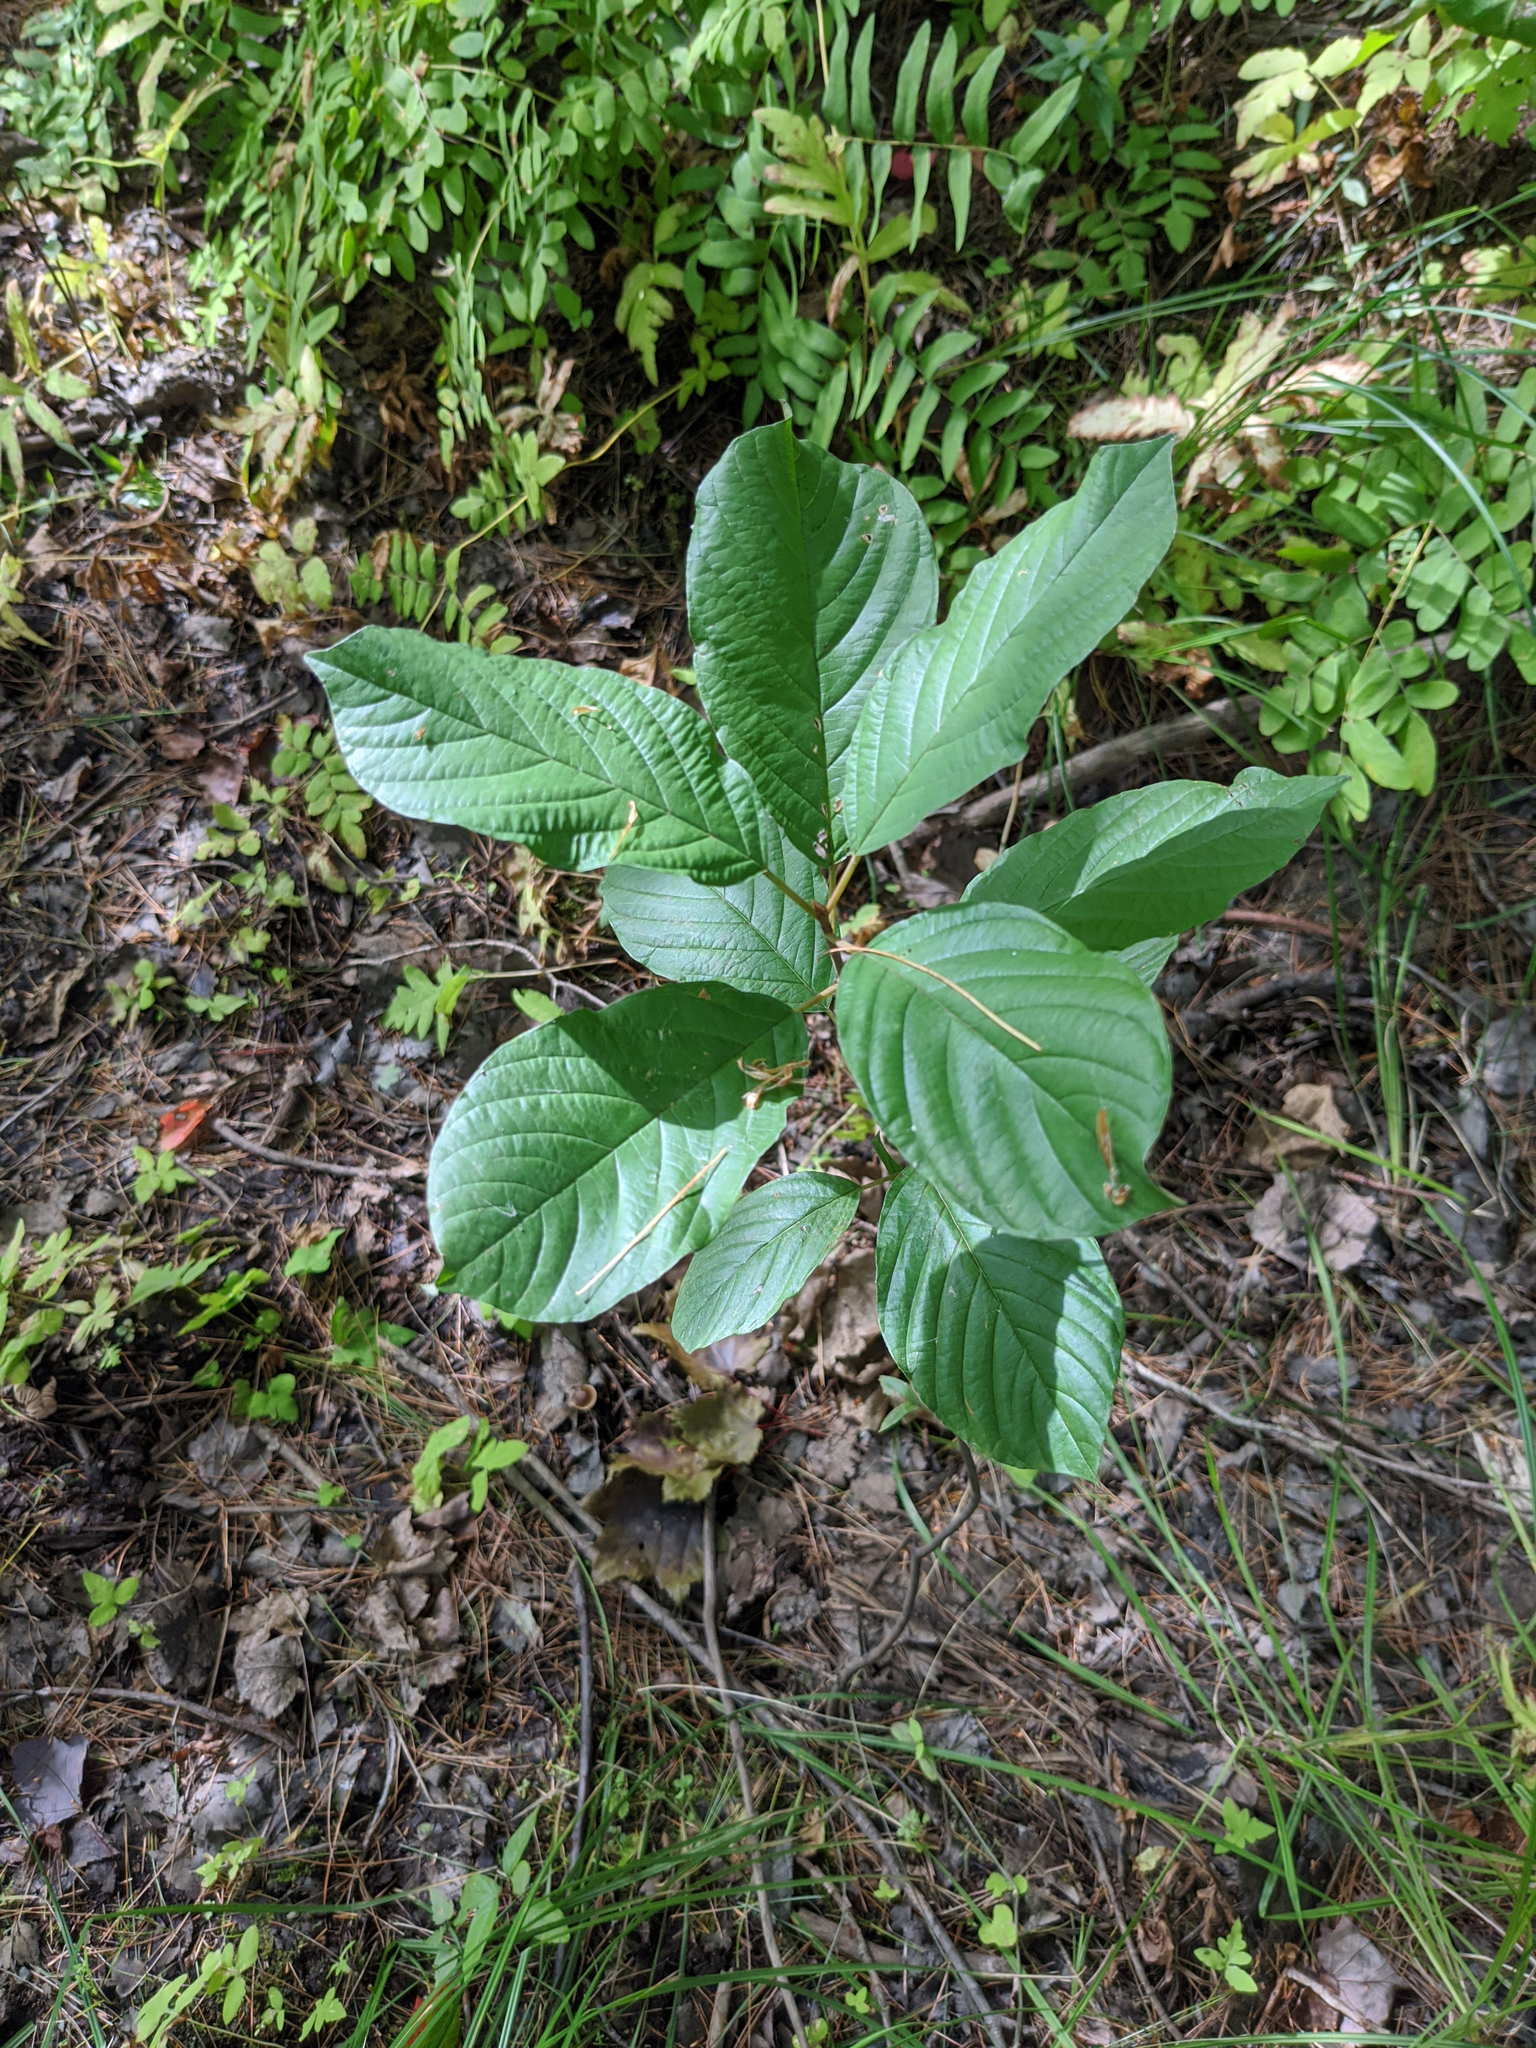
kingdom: Plantae
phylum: Tracheophyta
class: Magnoliopsida
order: Rosales
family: Rhamnaceae
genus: Frangula
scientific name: Frangula alnus
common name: Alder buckthorn
